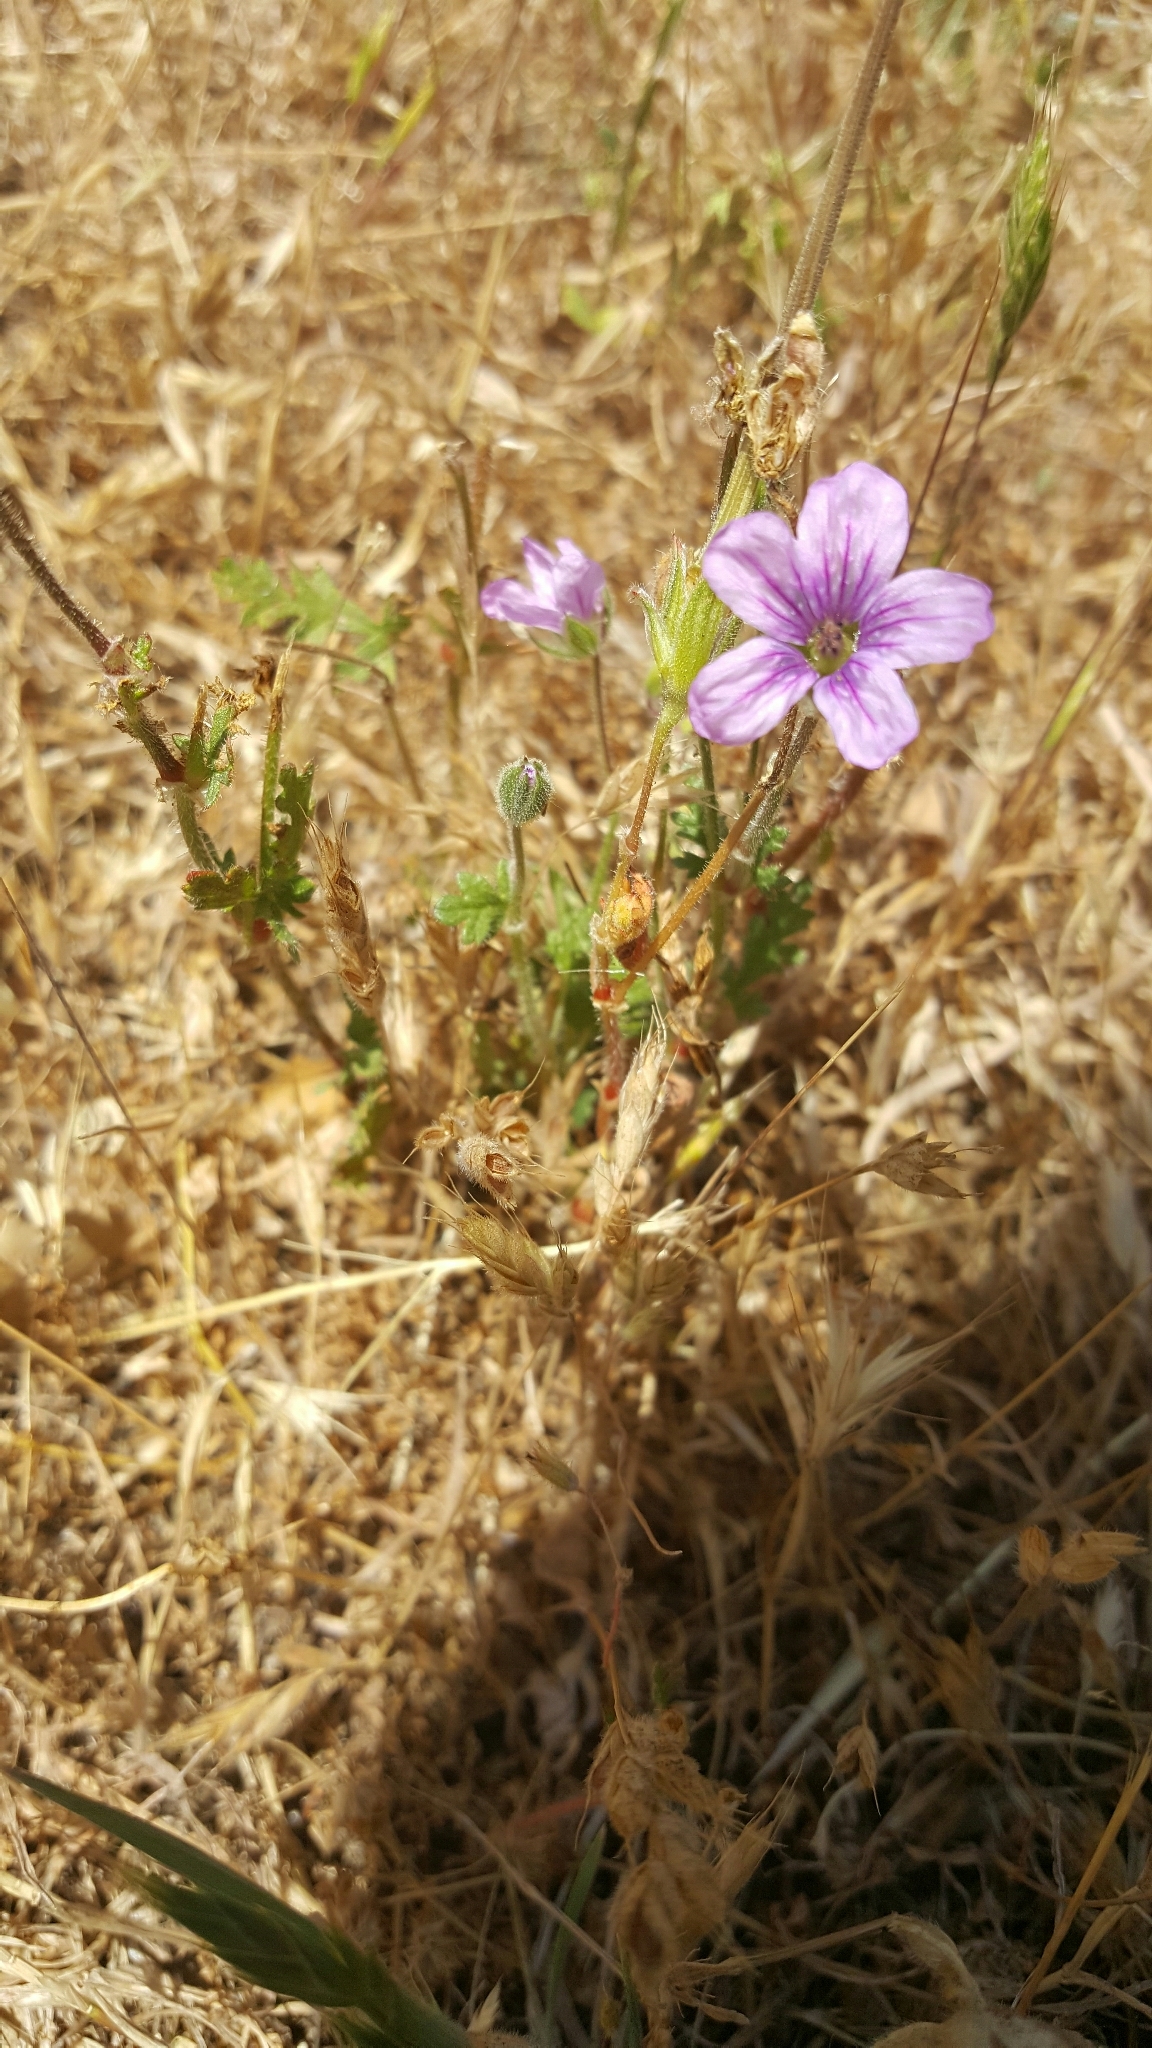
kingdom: Plantae
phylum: Tracheophyta
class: Magnoliopsida
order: Geraniales
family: Geraniaceae
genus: Erodium
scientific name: Erodium botrys
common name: Mediterranean stork's-bill
